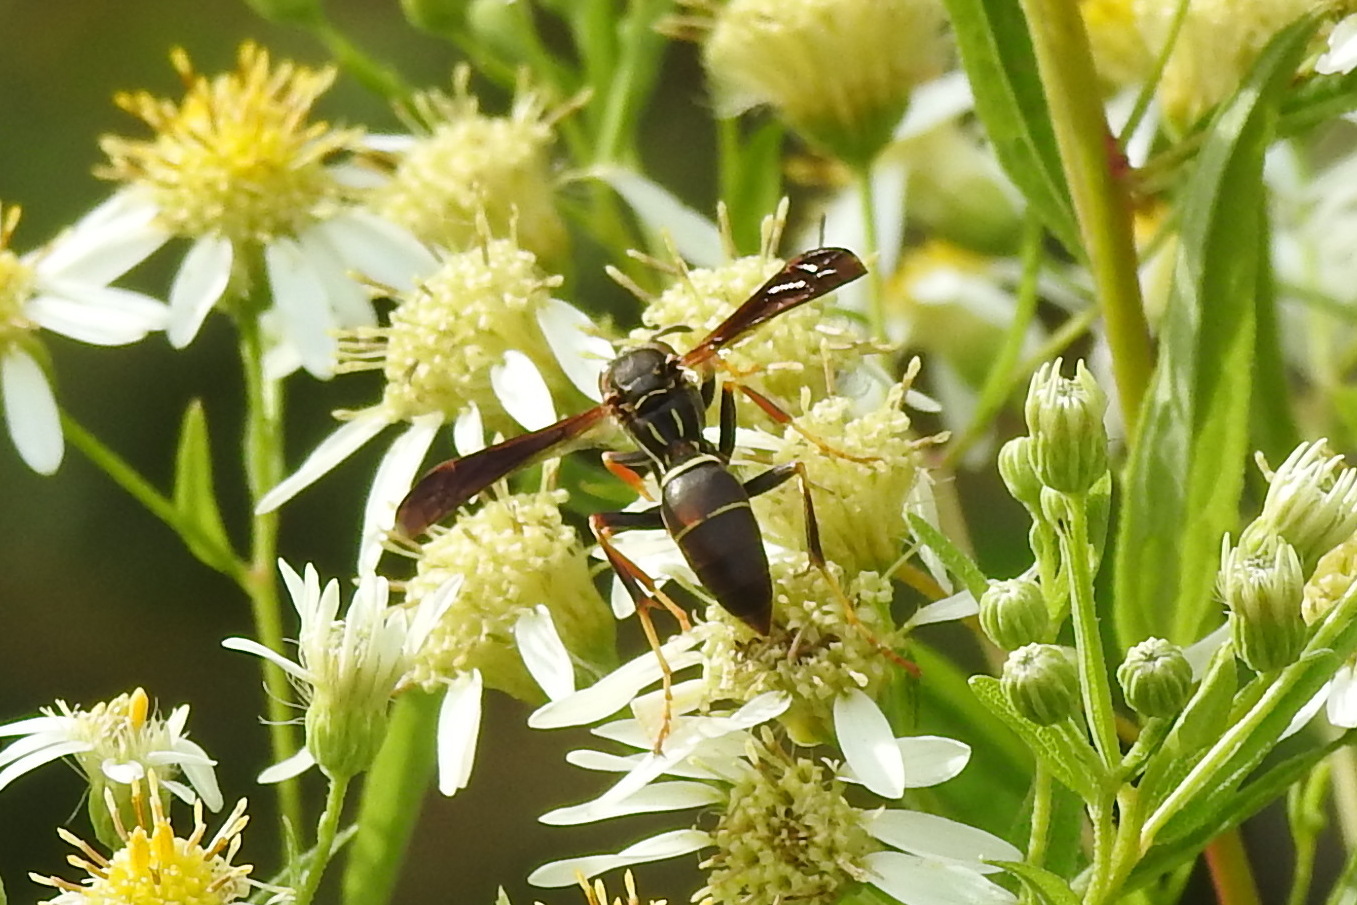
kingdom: Animalia
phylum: Arthropoda
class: Insecta
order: Hymenoptera
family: Eumenidae
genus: Polistes
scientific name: Polistes fuscatus
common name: Dark paper wasp
